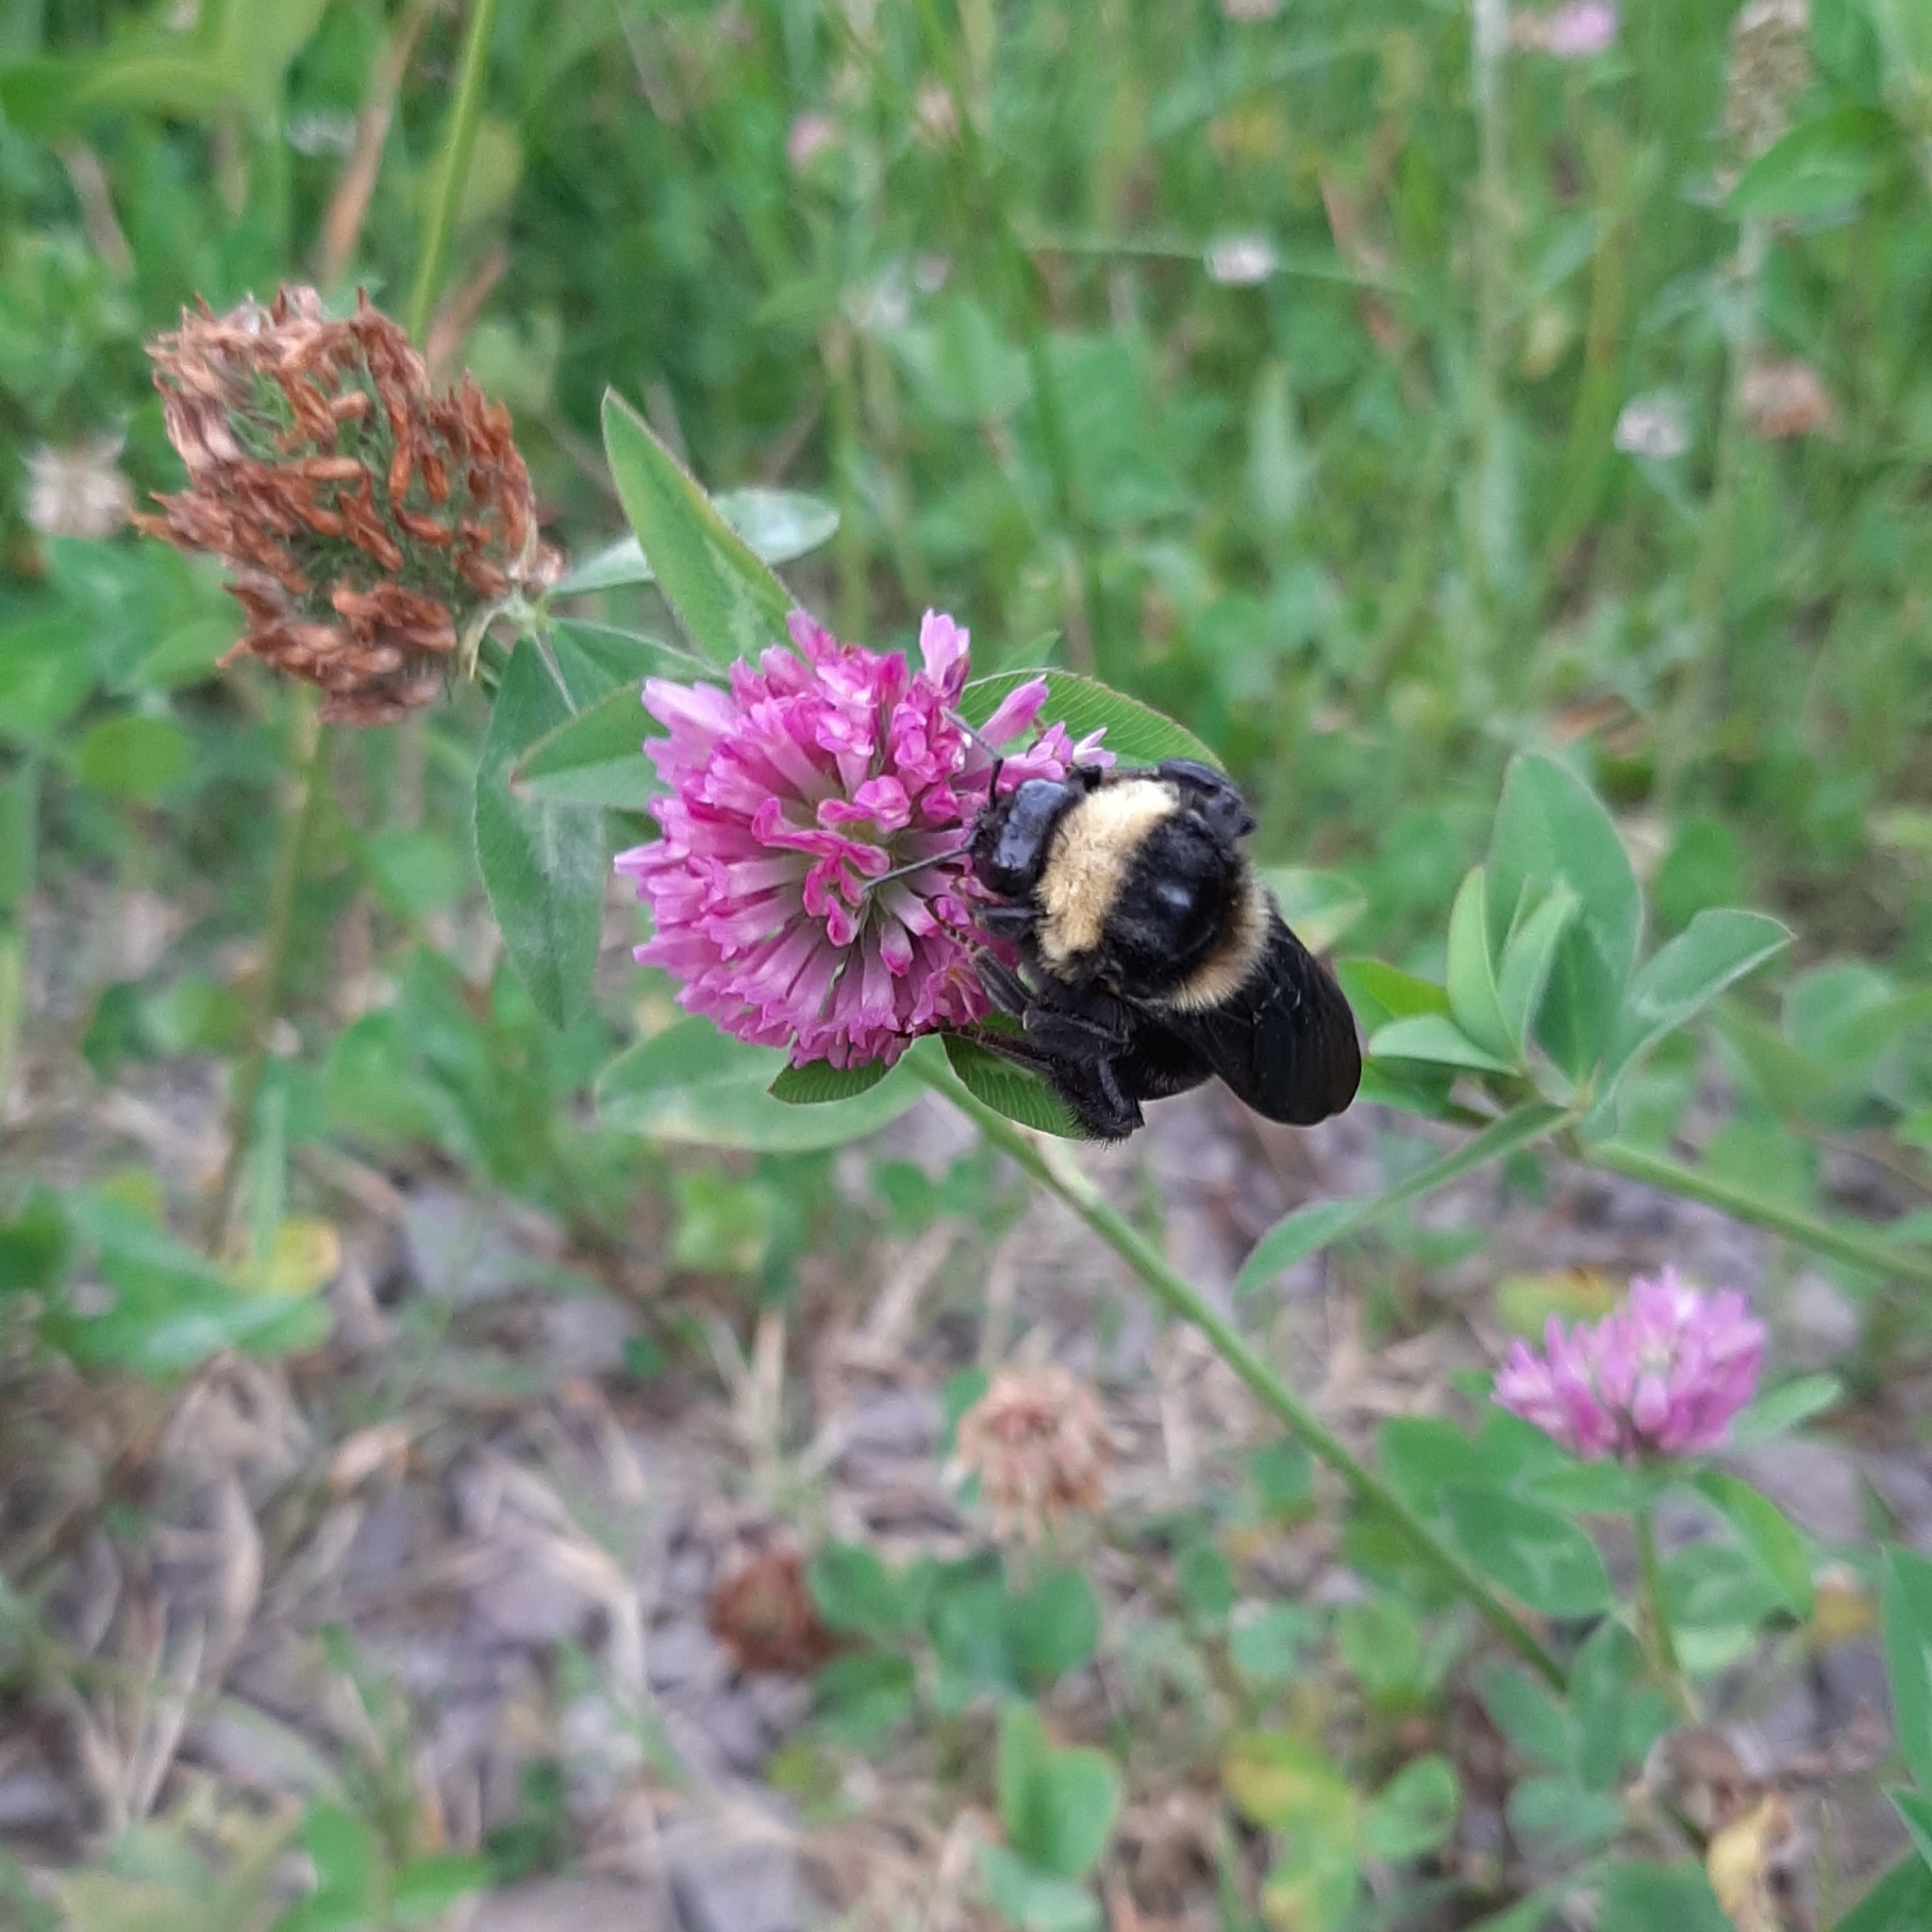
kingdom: Animalia
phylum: Arthropoda
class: Insecta
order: Hymenoptera
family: Apidae
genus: Bombus
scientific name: Bombus pauloensis
